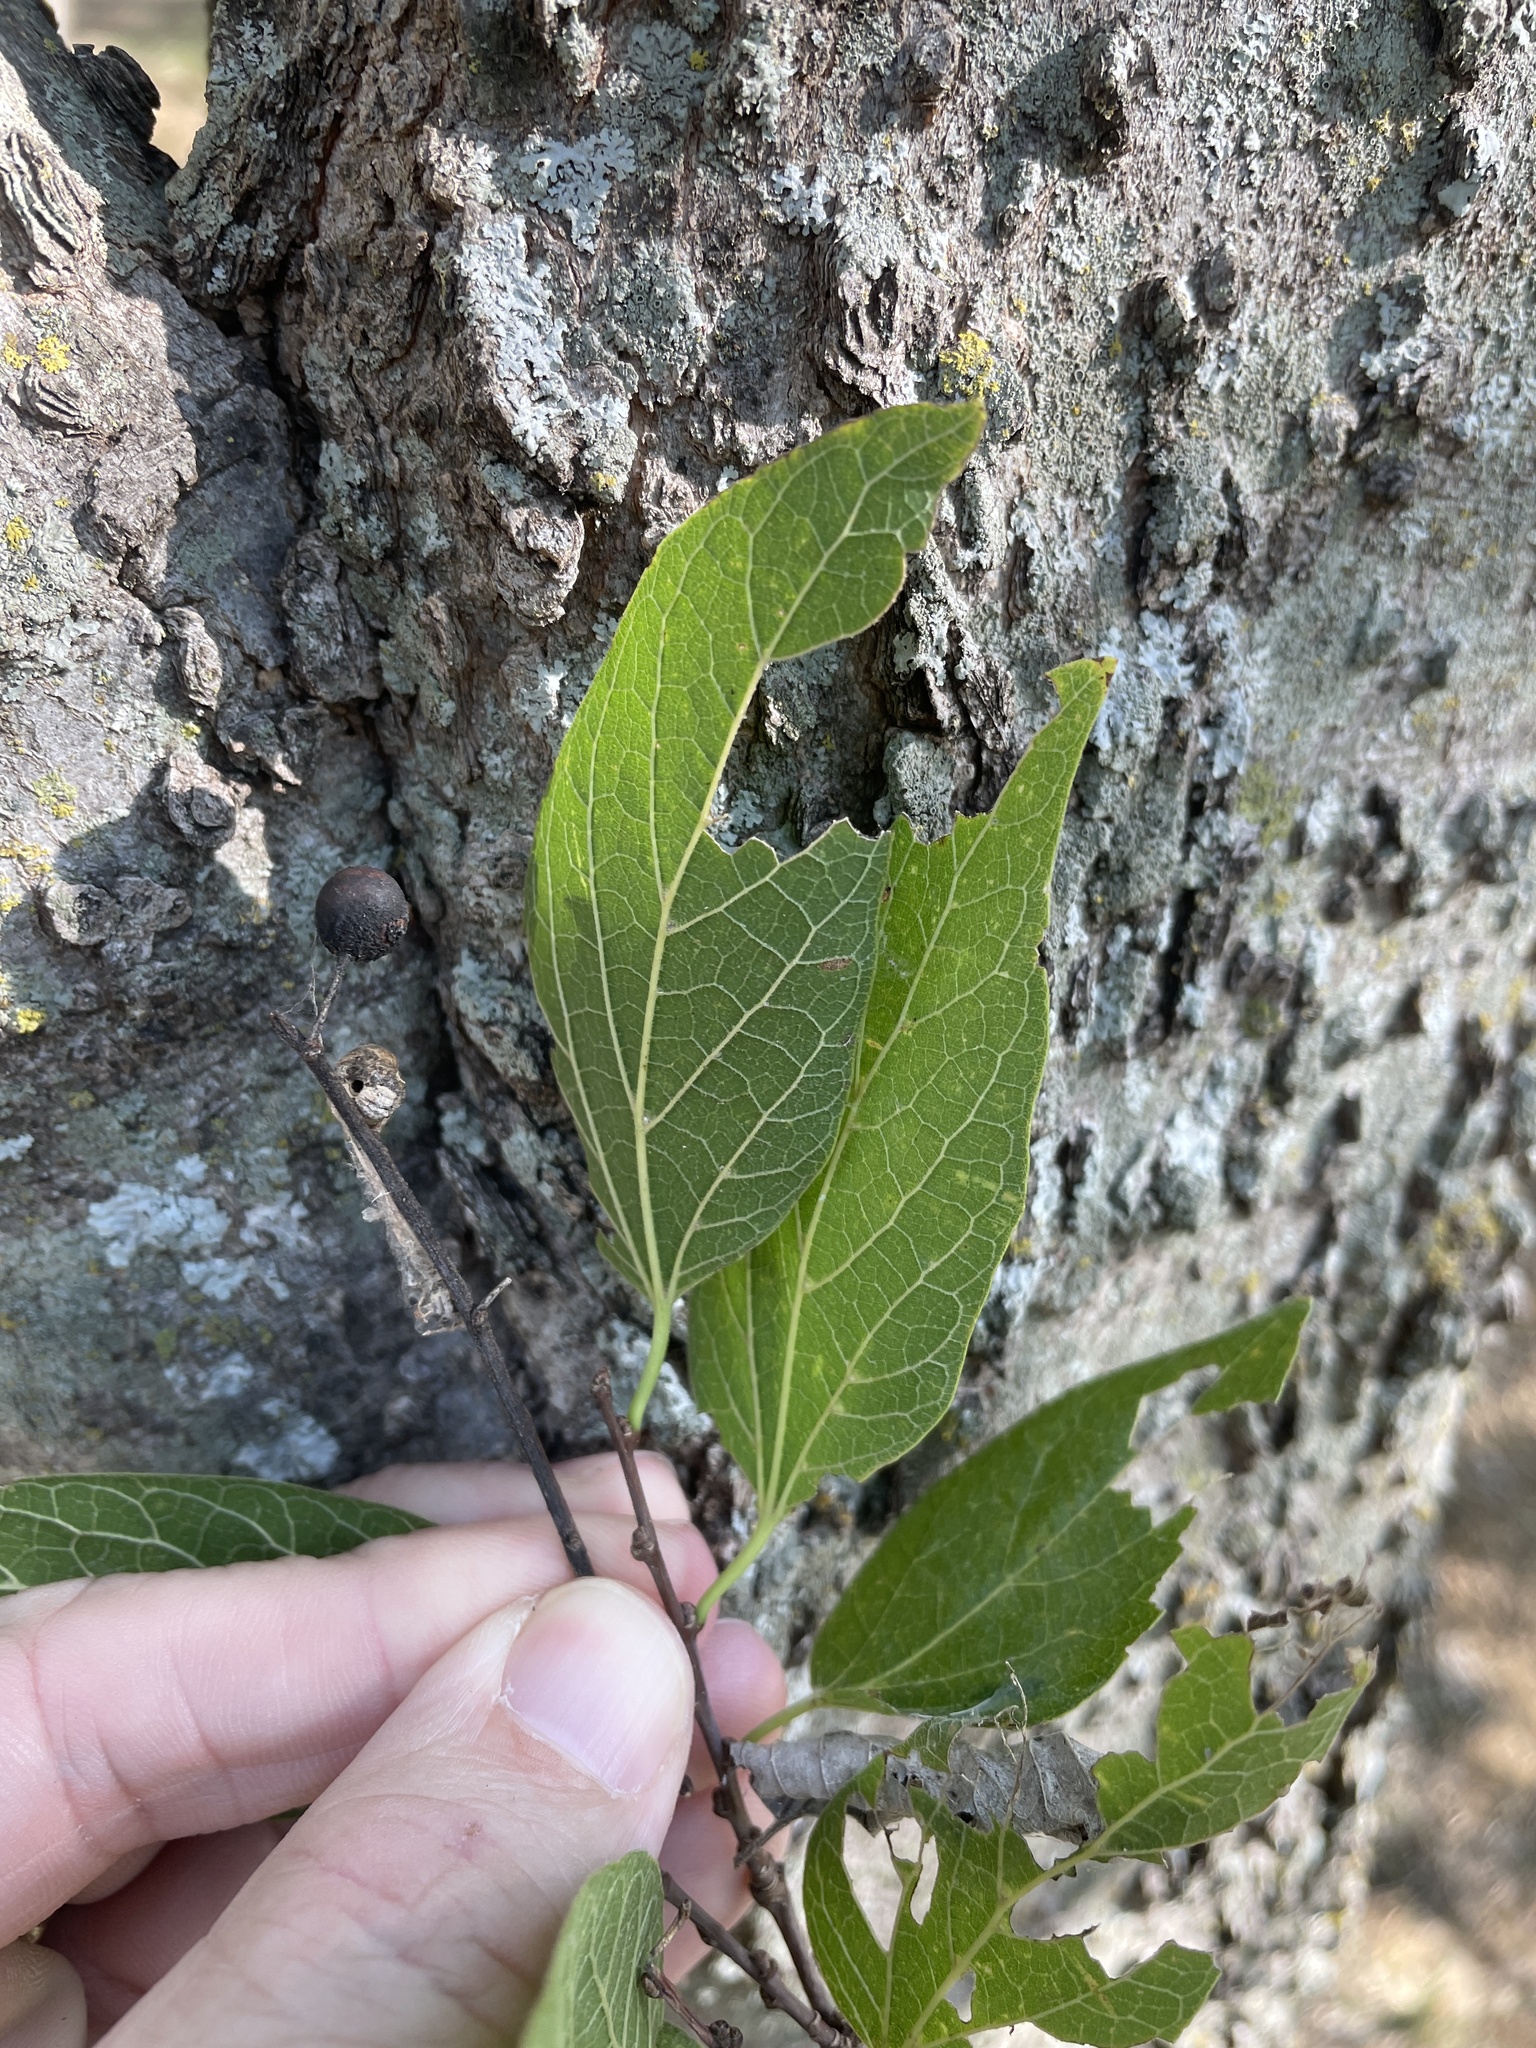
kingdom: Plantae
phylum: Tracheophyta
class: Magnoliopsida
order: Rosales
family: Cannabaceae
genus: Celtis
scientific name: Celtis laevigata
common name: Sugarberry
